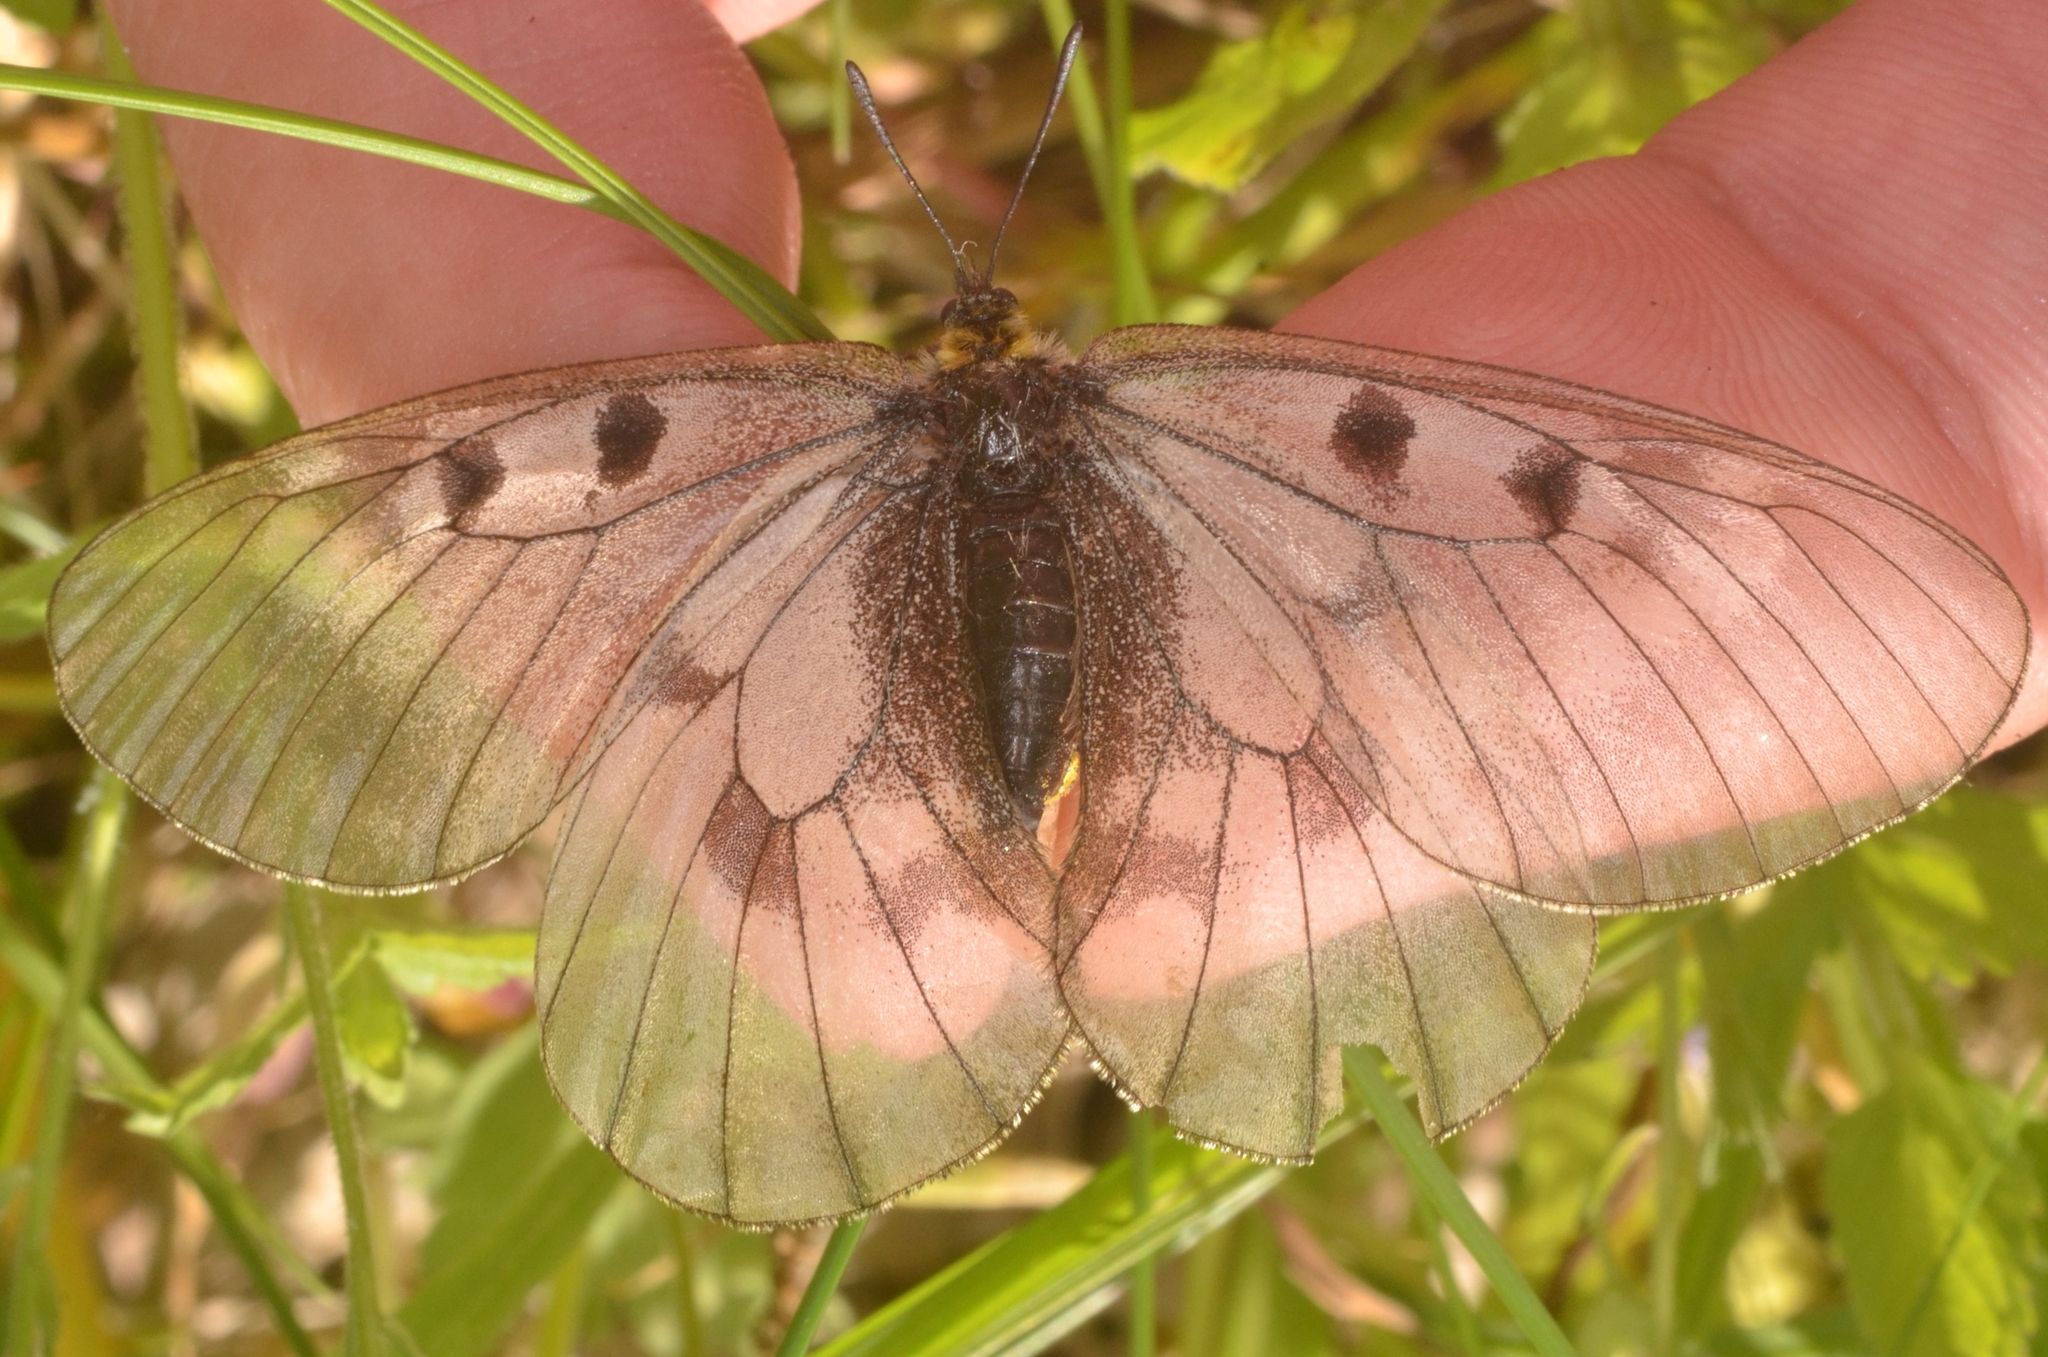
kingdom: Animalia
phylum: Arthropoda
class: Insecta
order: Lepidoptera
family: Papilionidae
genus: Parnassius
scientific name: Parnassius mnemosyne
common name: Clouded apollo
